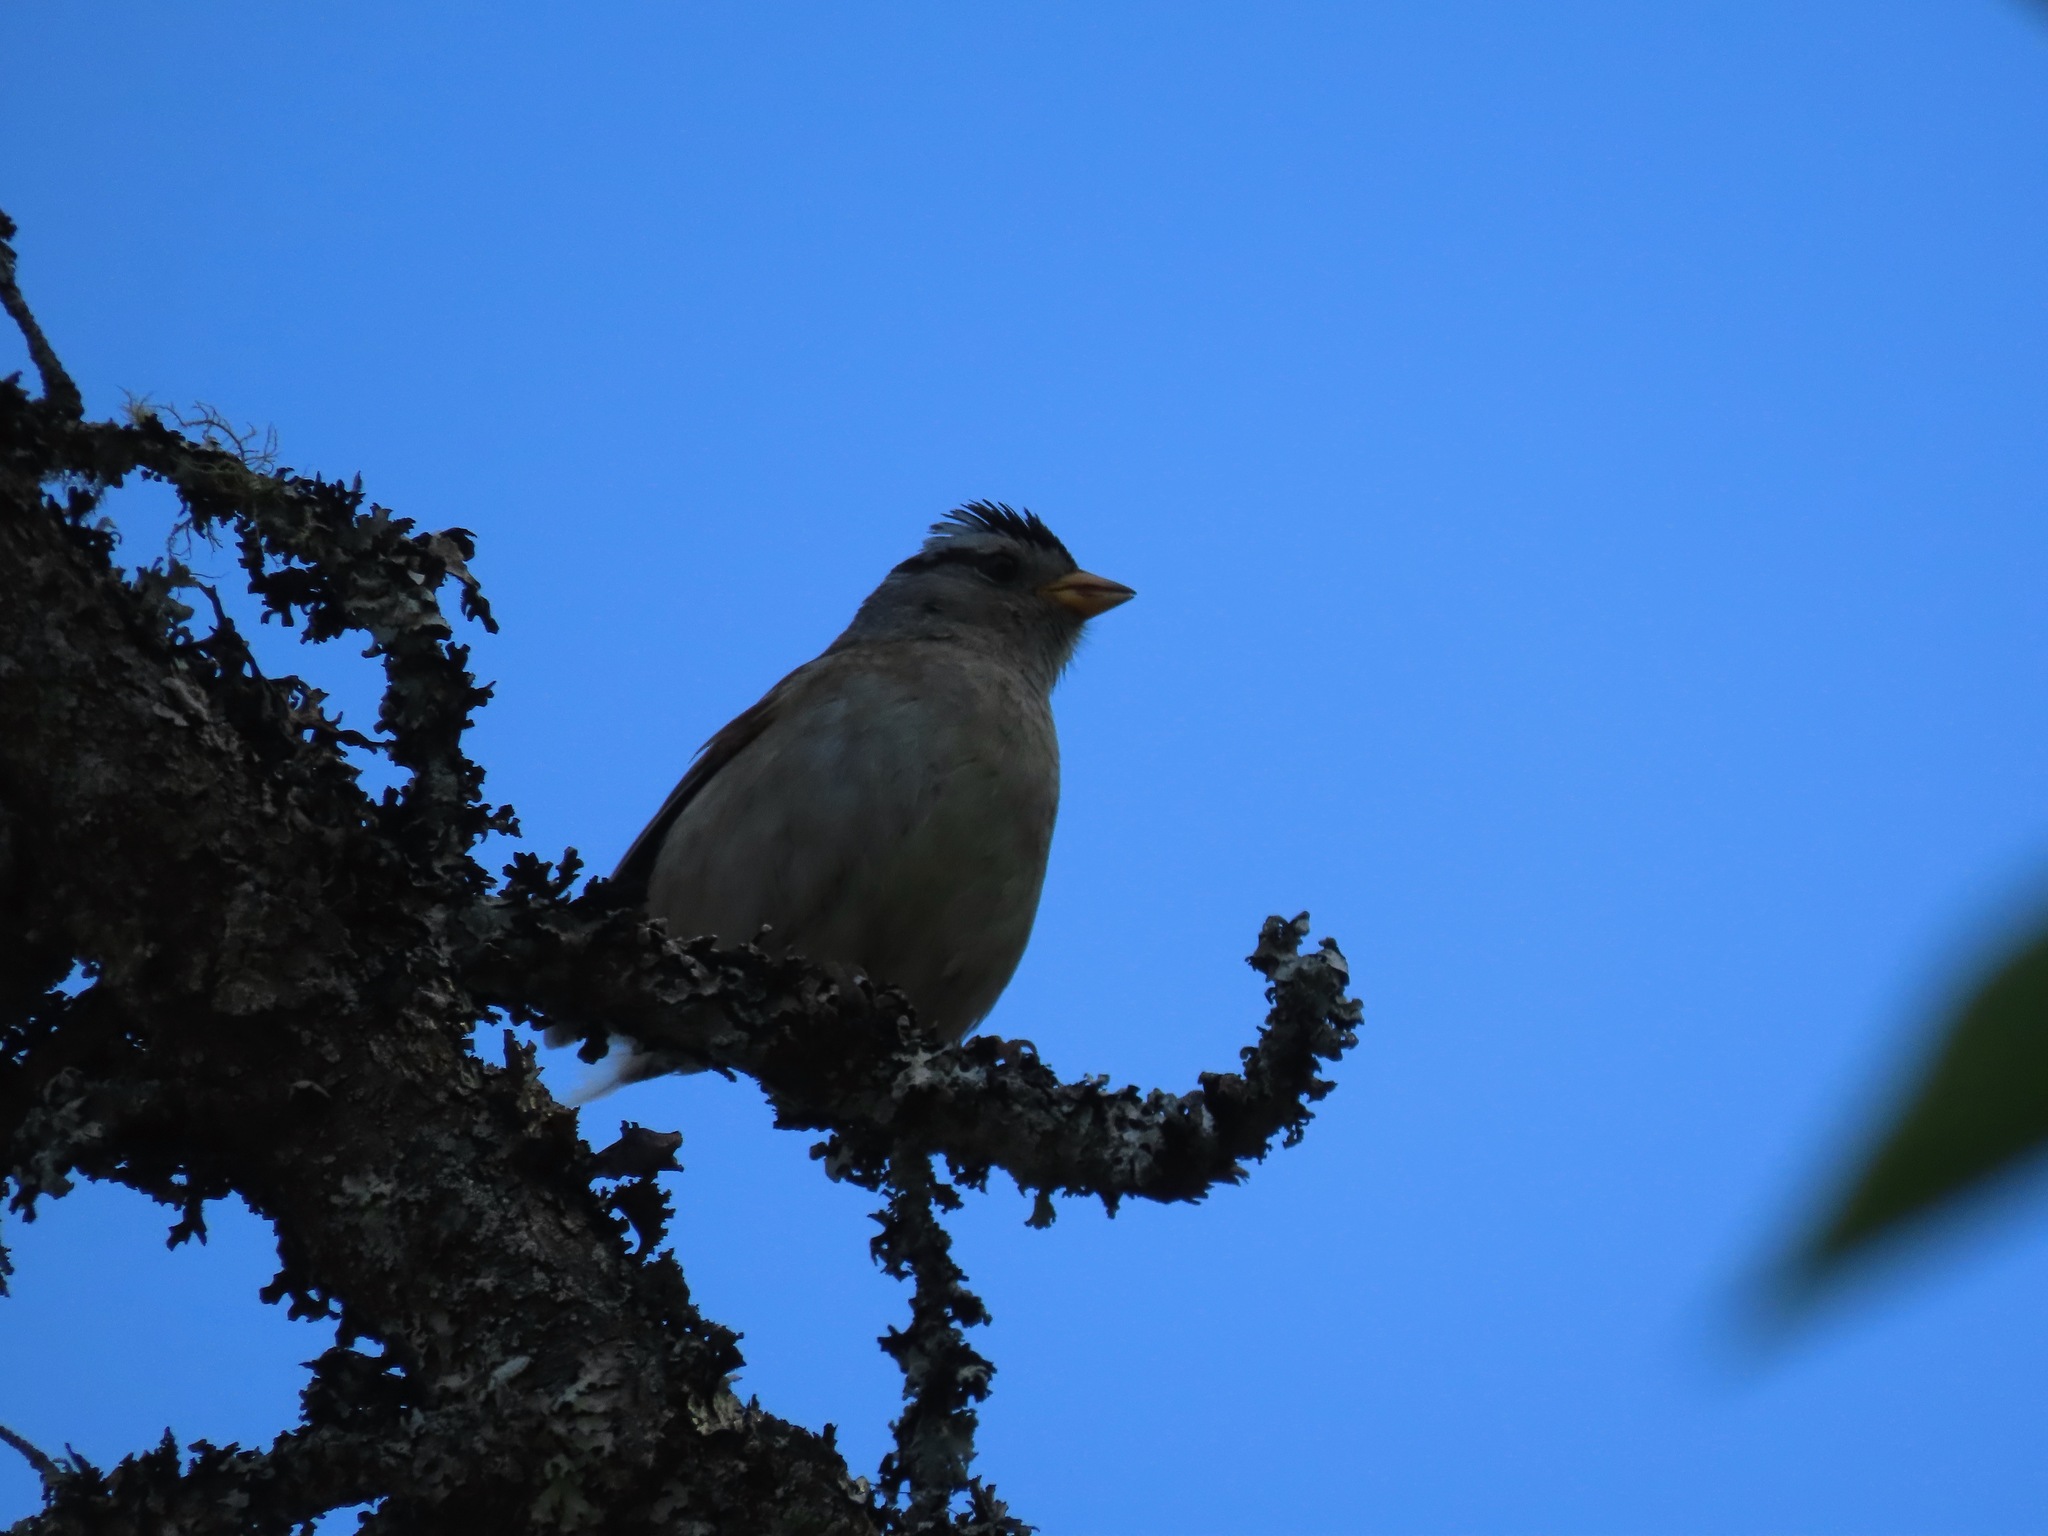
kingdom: Animalia
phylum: Chordata
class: Aves
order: Passeriformes
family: Passerellidae
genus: Zonotrichia
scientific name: Zonotrichia leucophrys
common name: White-crowned sparrow
